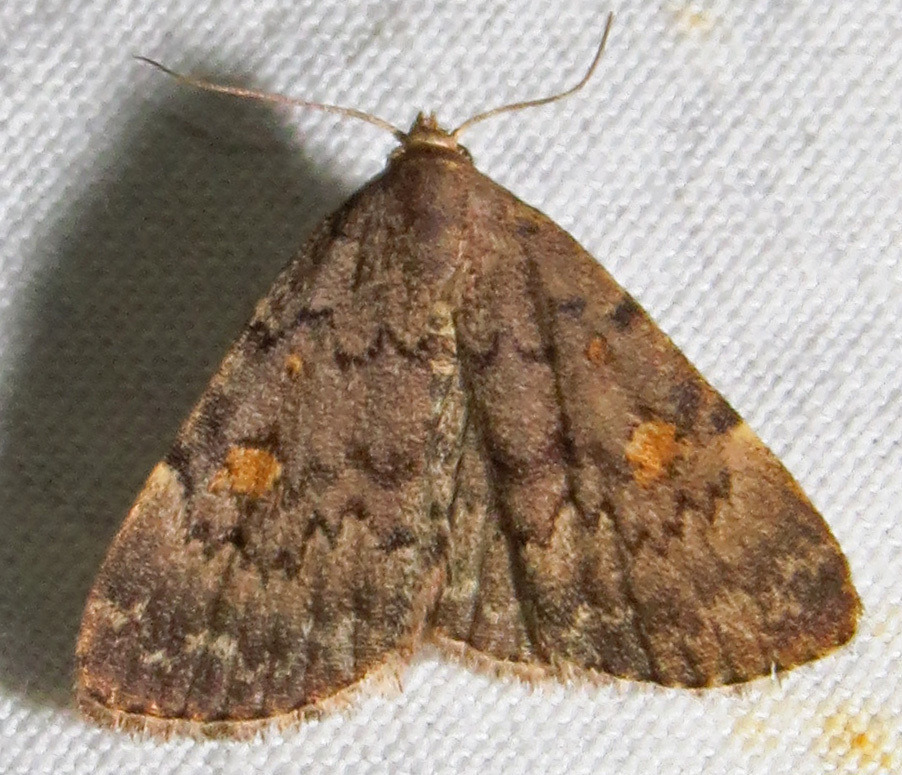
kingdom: Animalia
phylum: Arthropoda
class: Insecta
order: Lepidoptera
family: Erebidae
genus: Idia
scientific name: Idia aemula
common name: Common idia moth
